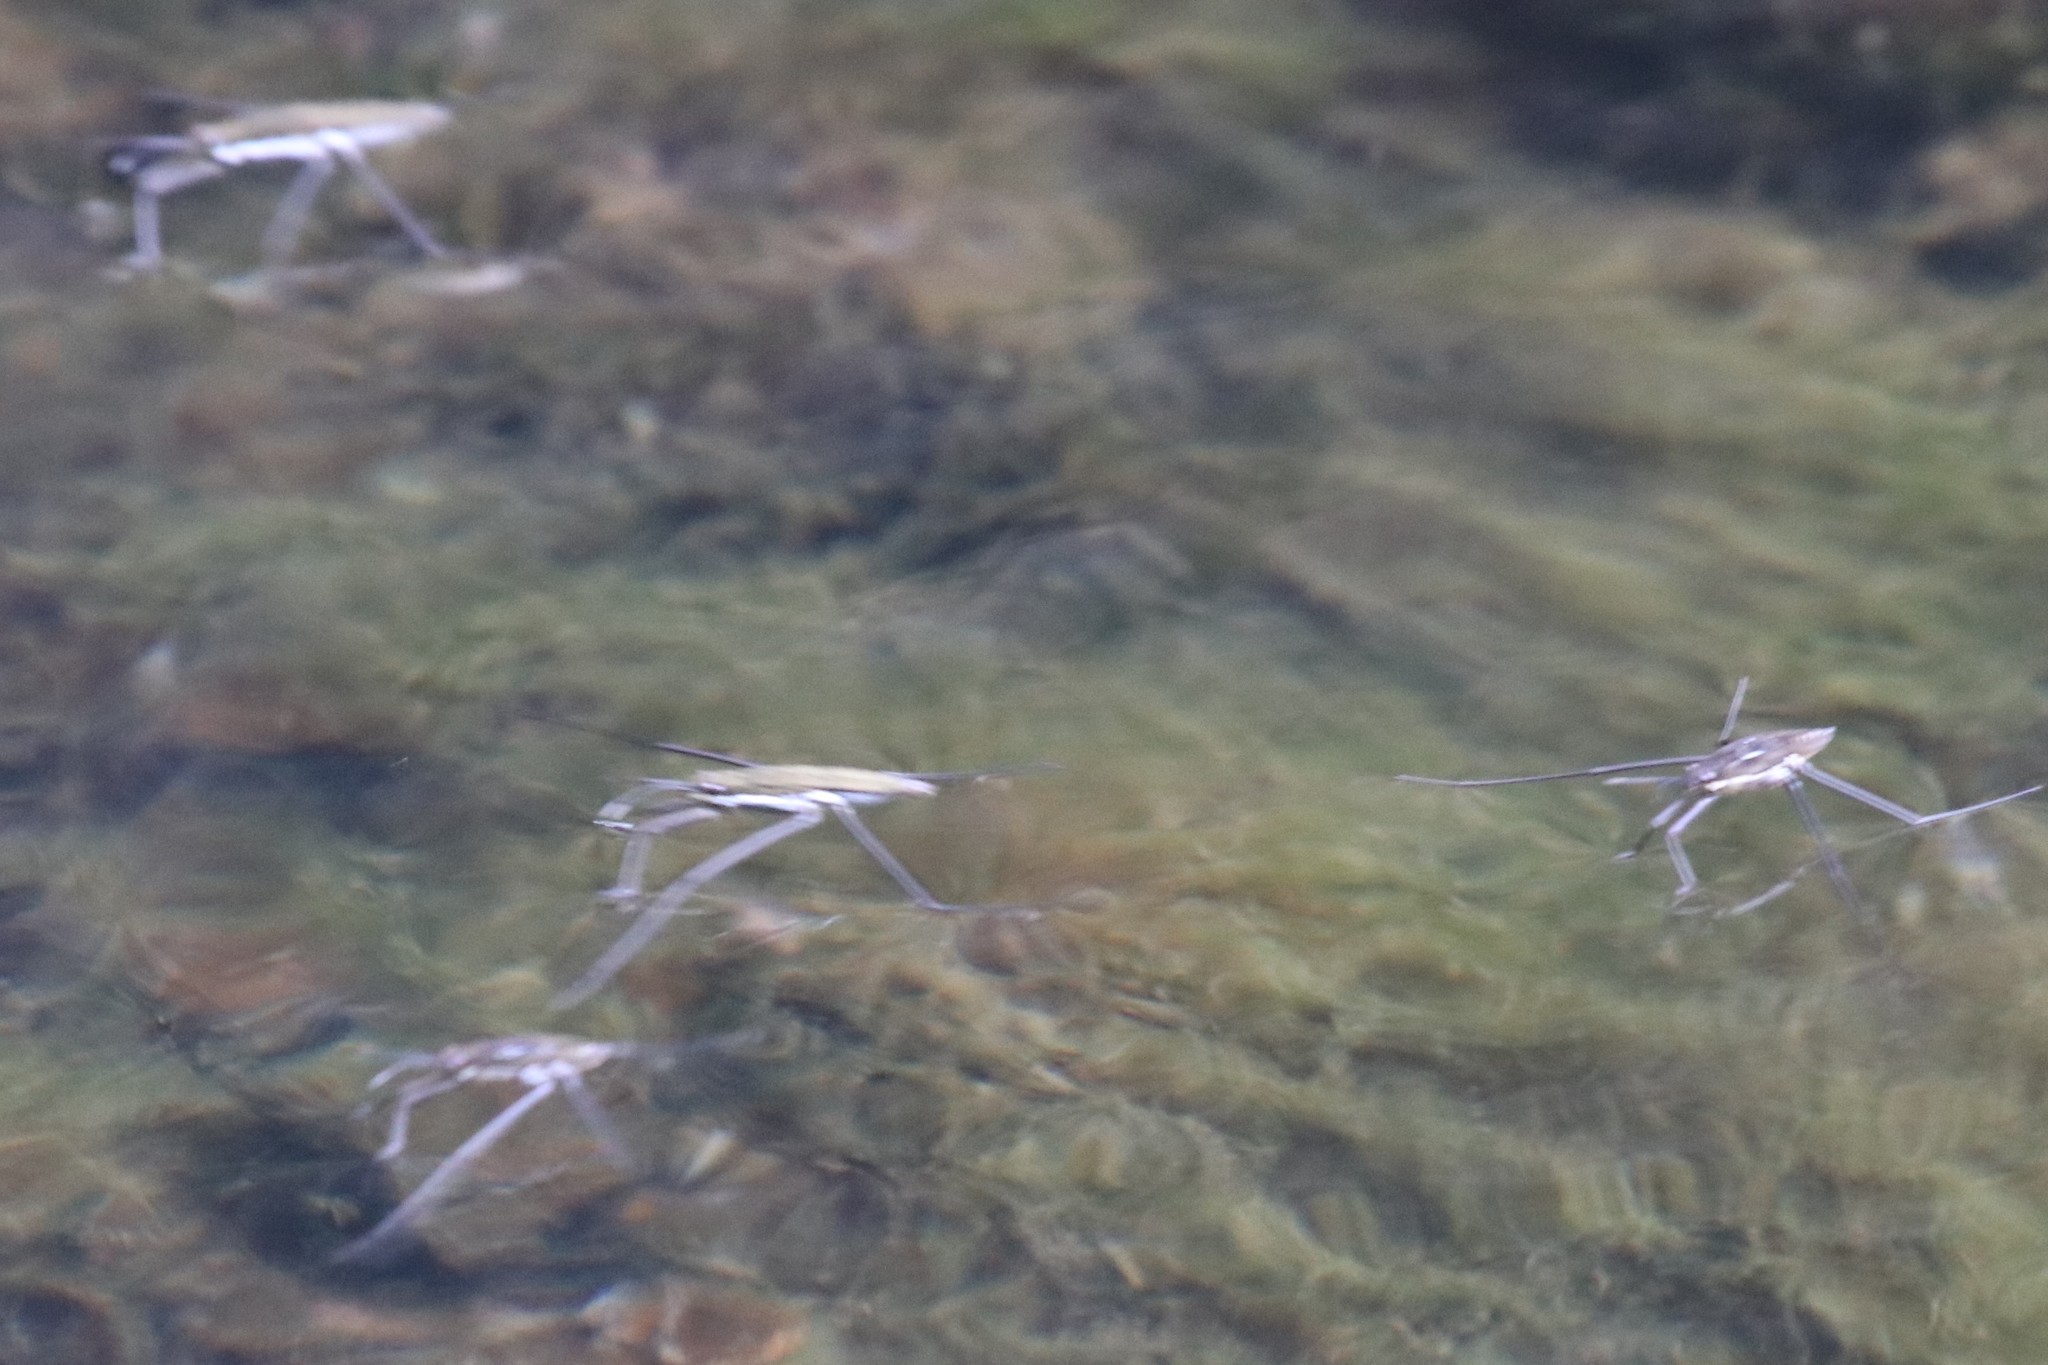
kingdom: Animalia
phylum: Arthropoda
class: Insecta
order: Hemiptera
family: Gerridae
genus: Aquarius
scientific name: Aquarius remigis
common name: Common water strider
